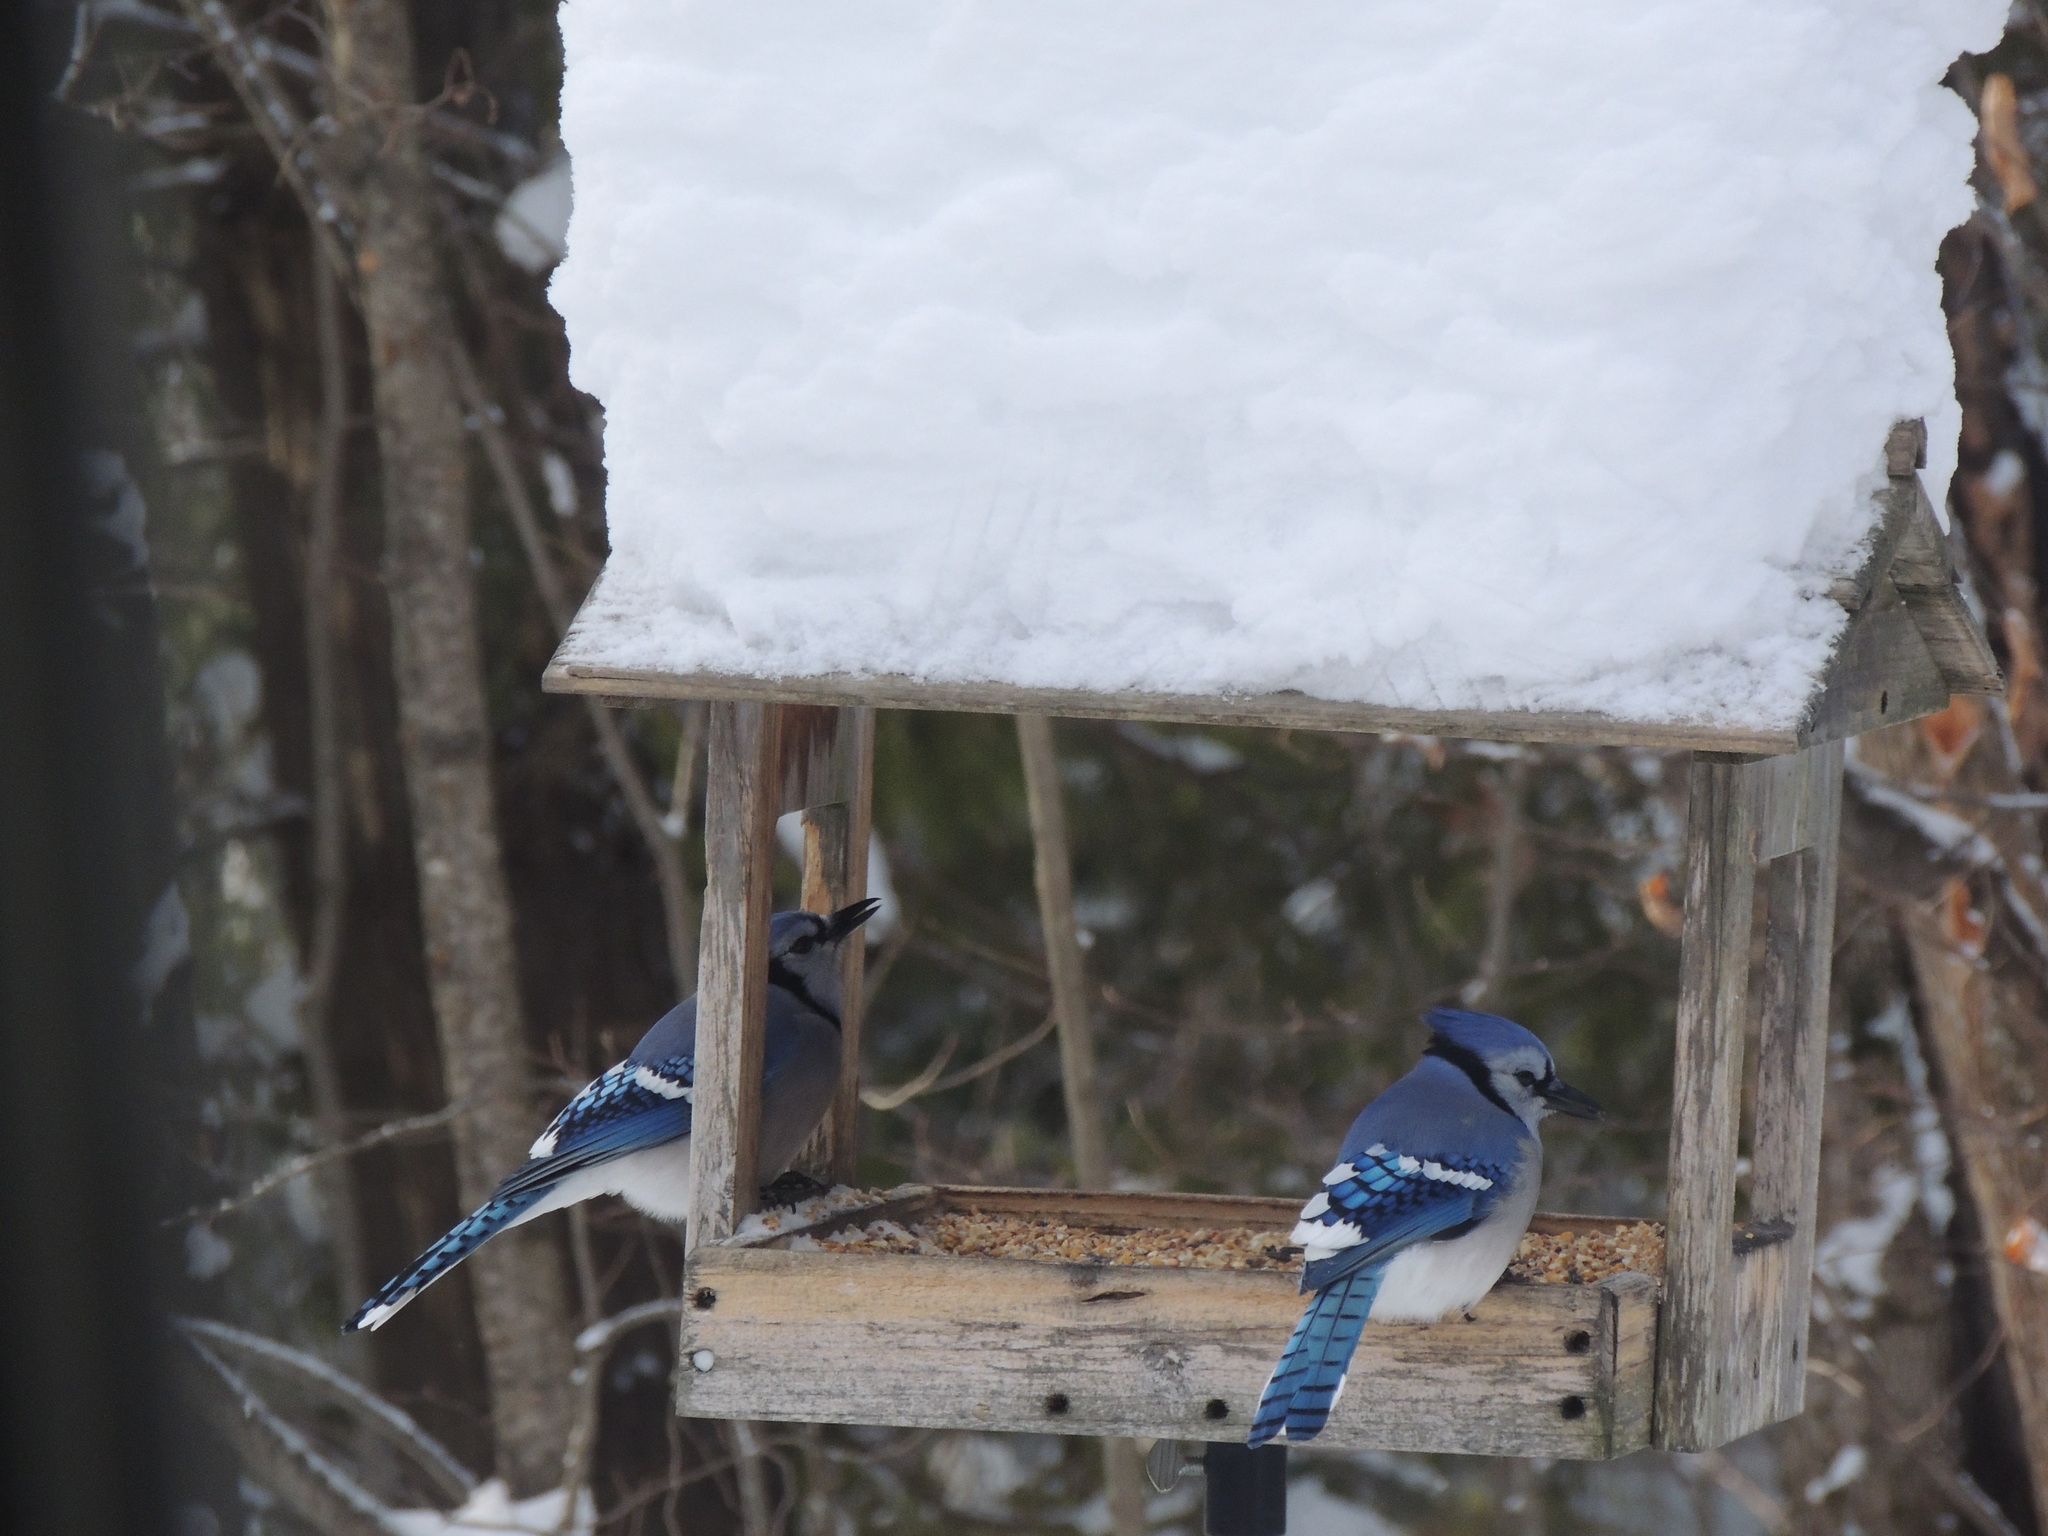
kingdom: Animalia
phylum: Chordata
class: Aves
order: Passeriformes
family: Corvidae
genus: Cyanocitta
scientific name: Cyanocitta cristata
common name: Blue jay
